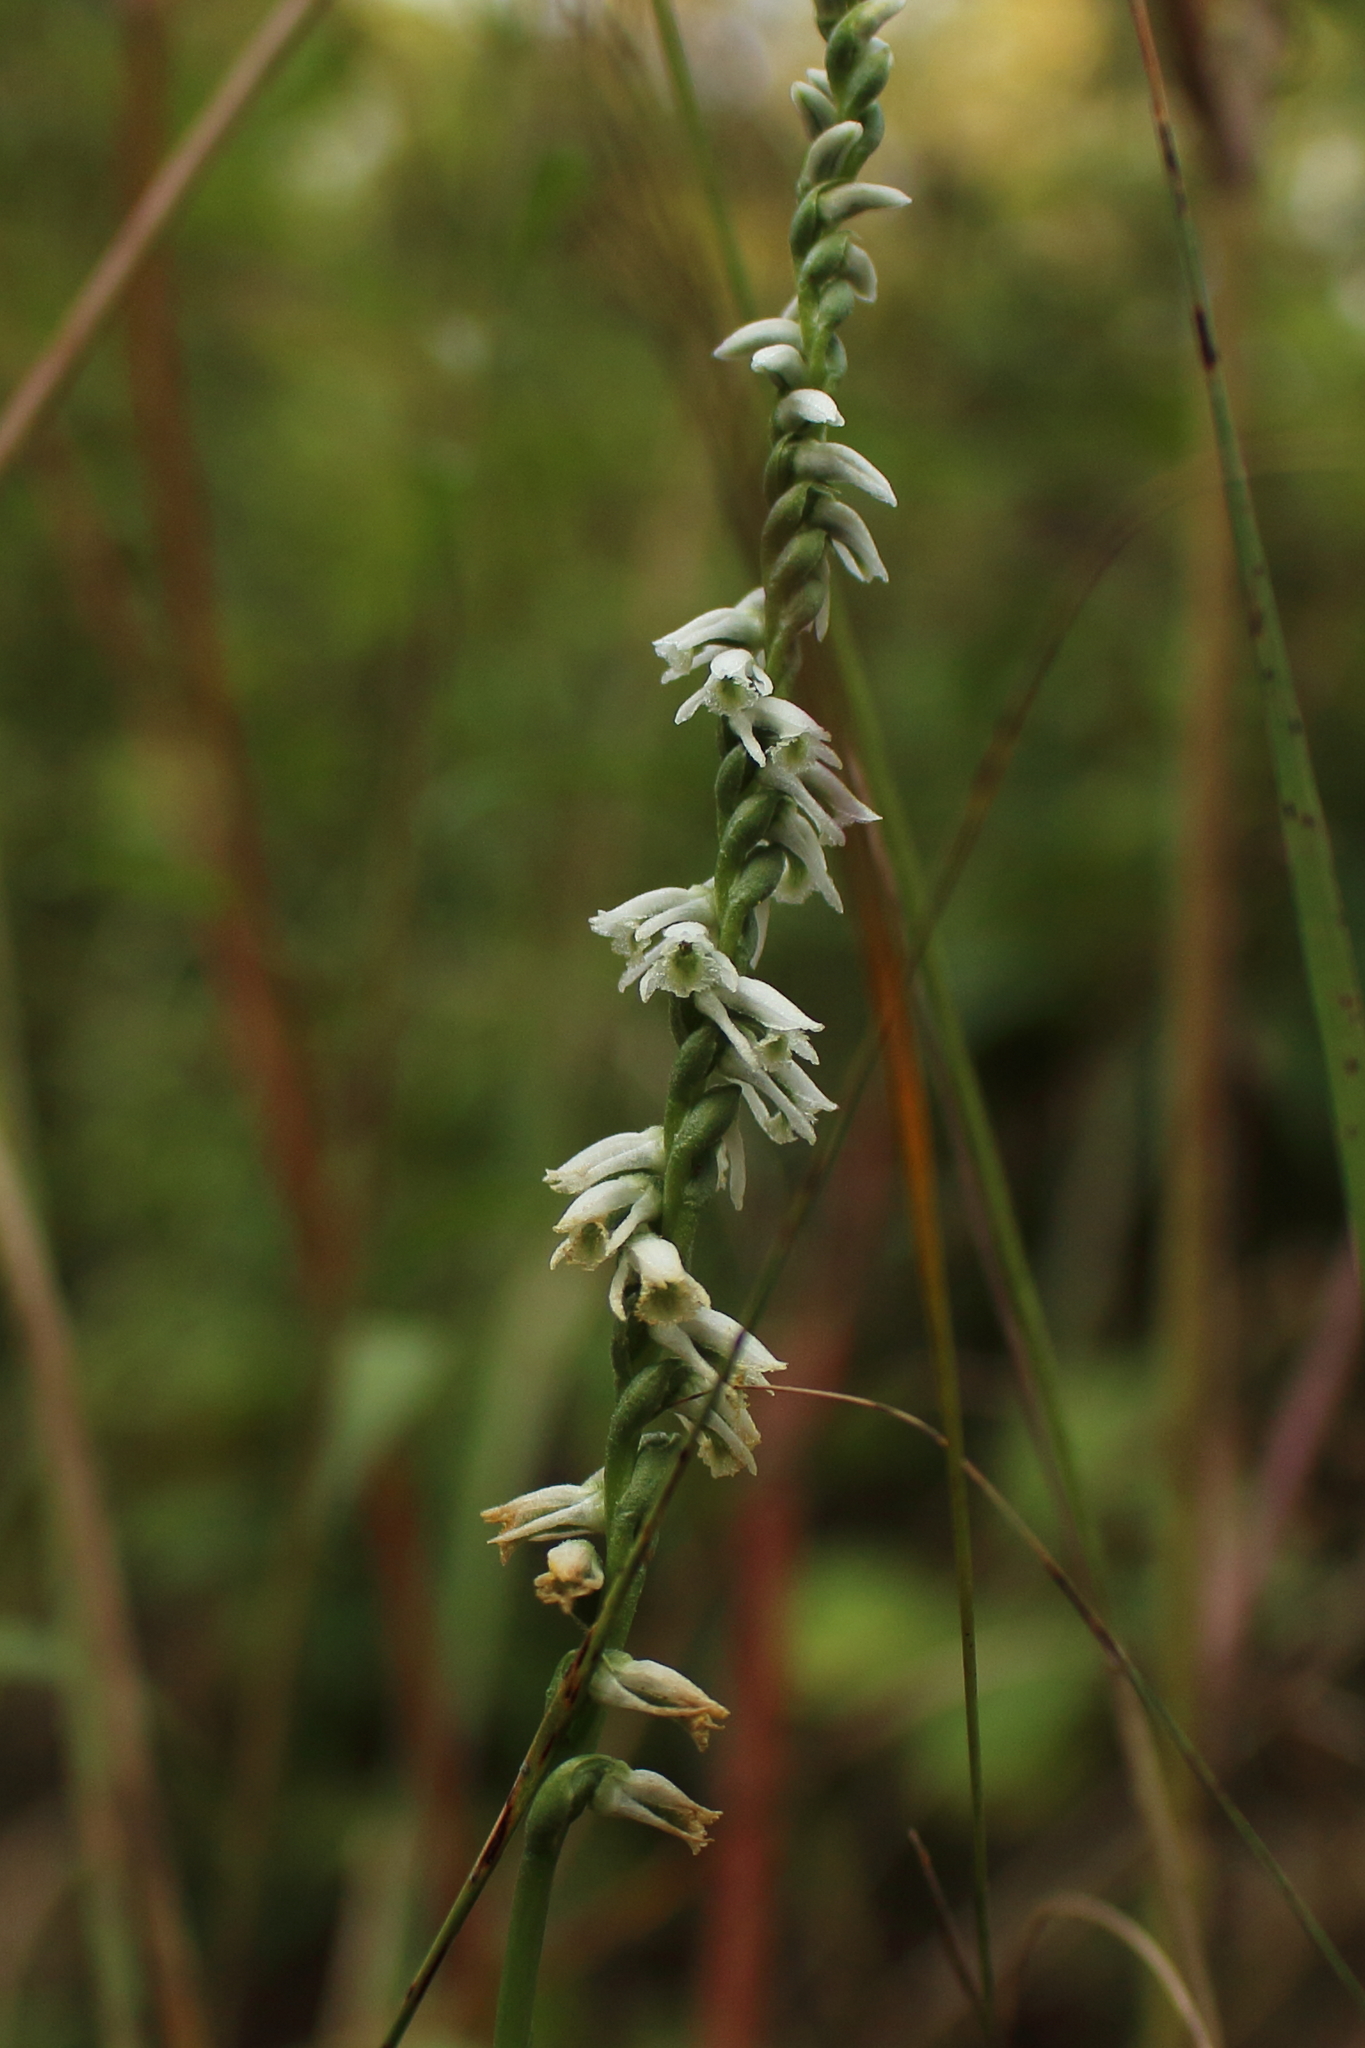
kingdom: Plantae
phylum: Tracheophyta
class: Liliopsida
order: Asparagales
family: Orchidaceae
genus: Spiranthes
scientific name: Spiranthes lacera
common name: Northern slender ladies'-tresses
